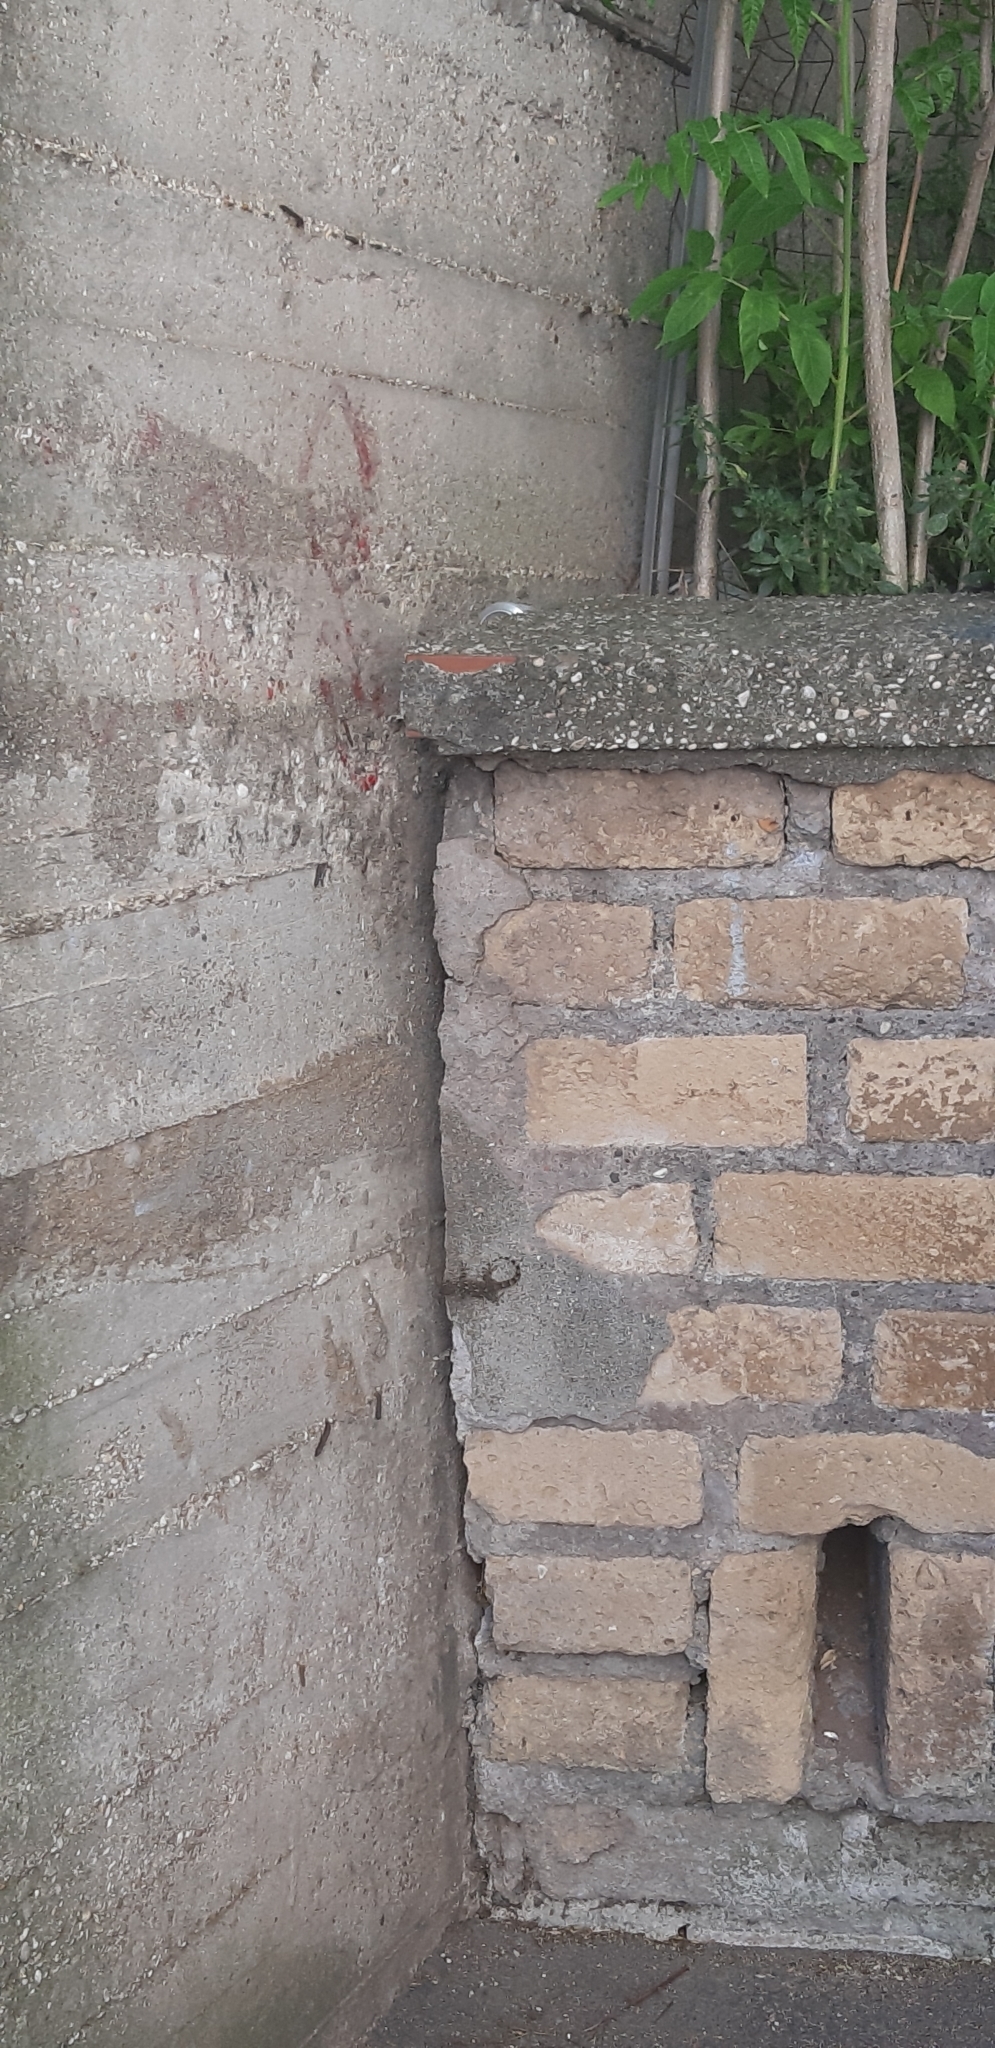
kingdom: Animalia
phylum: Chordata
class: Squamata
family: Phyllodactylidae
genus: Tarentola
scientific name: Tarentola mauritanica
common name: Moorish gecko
